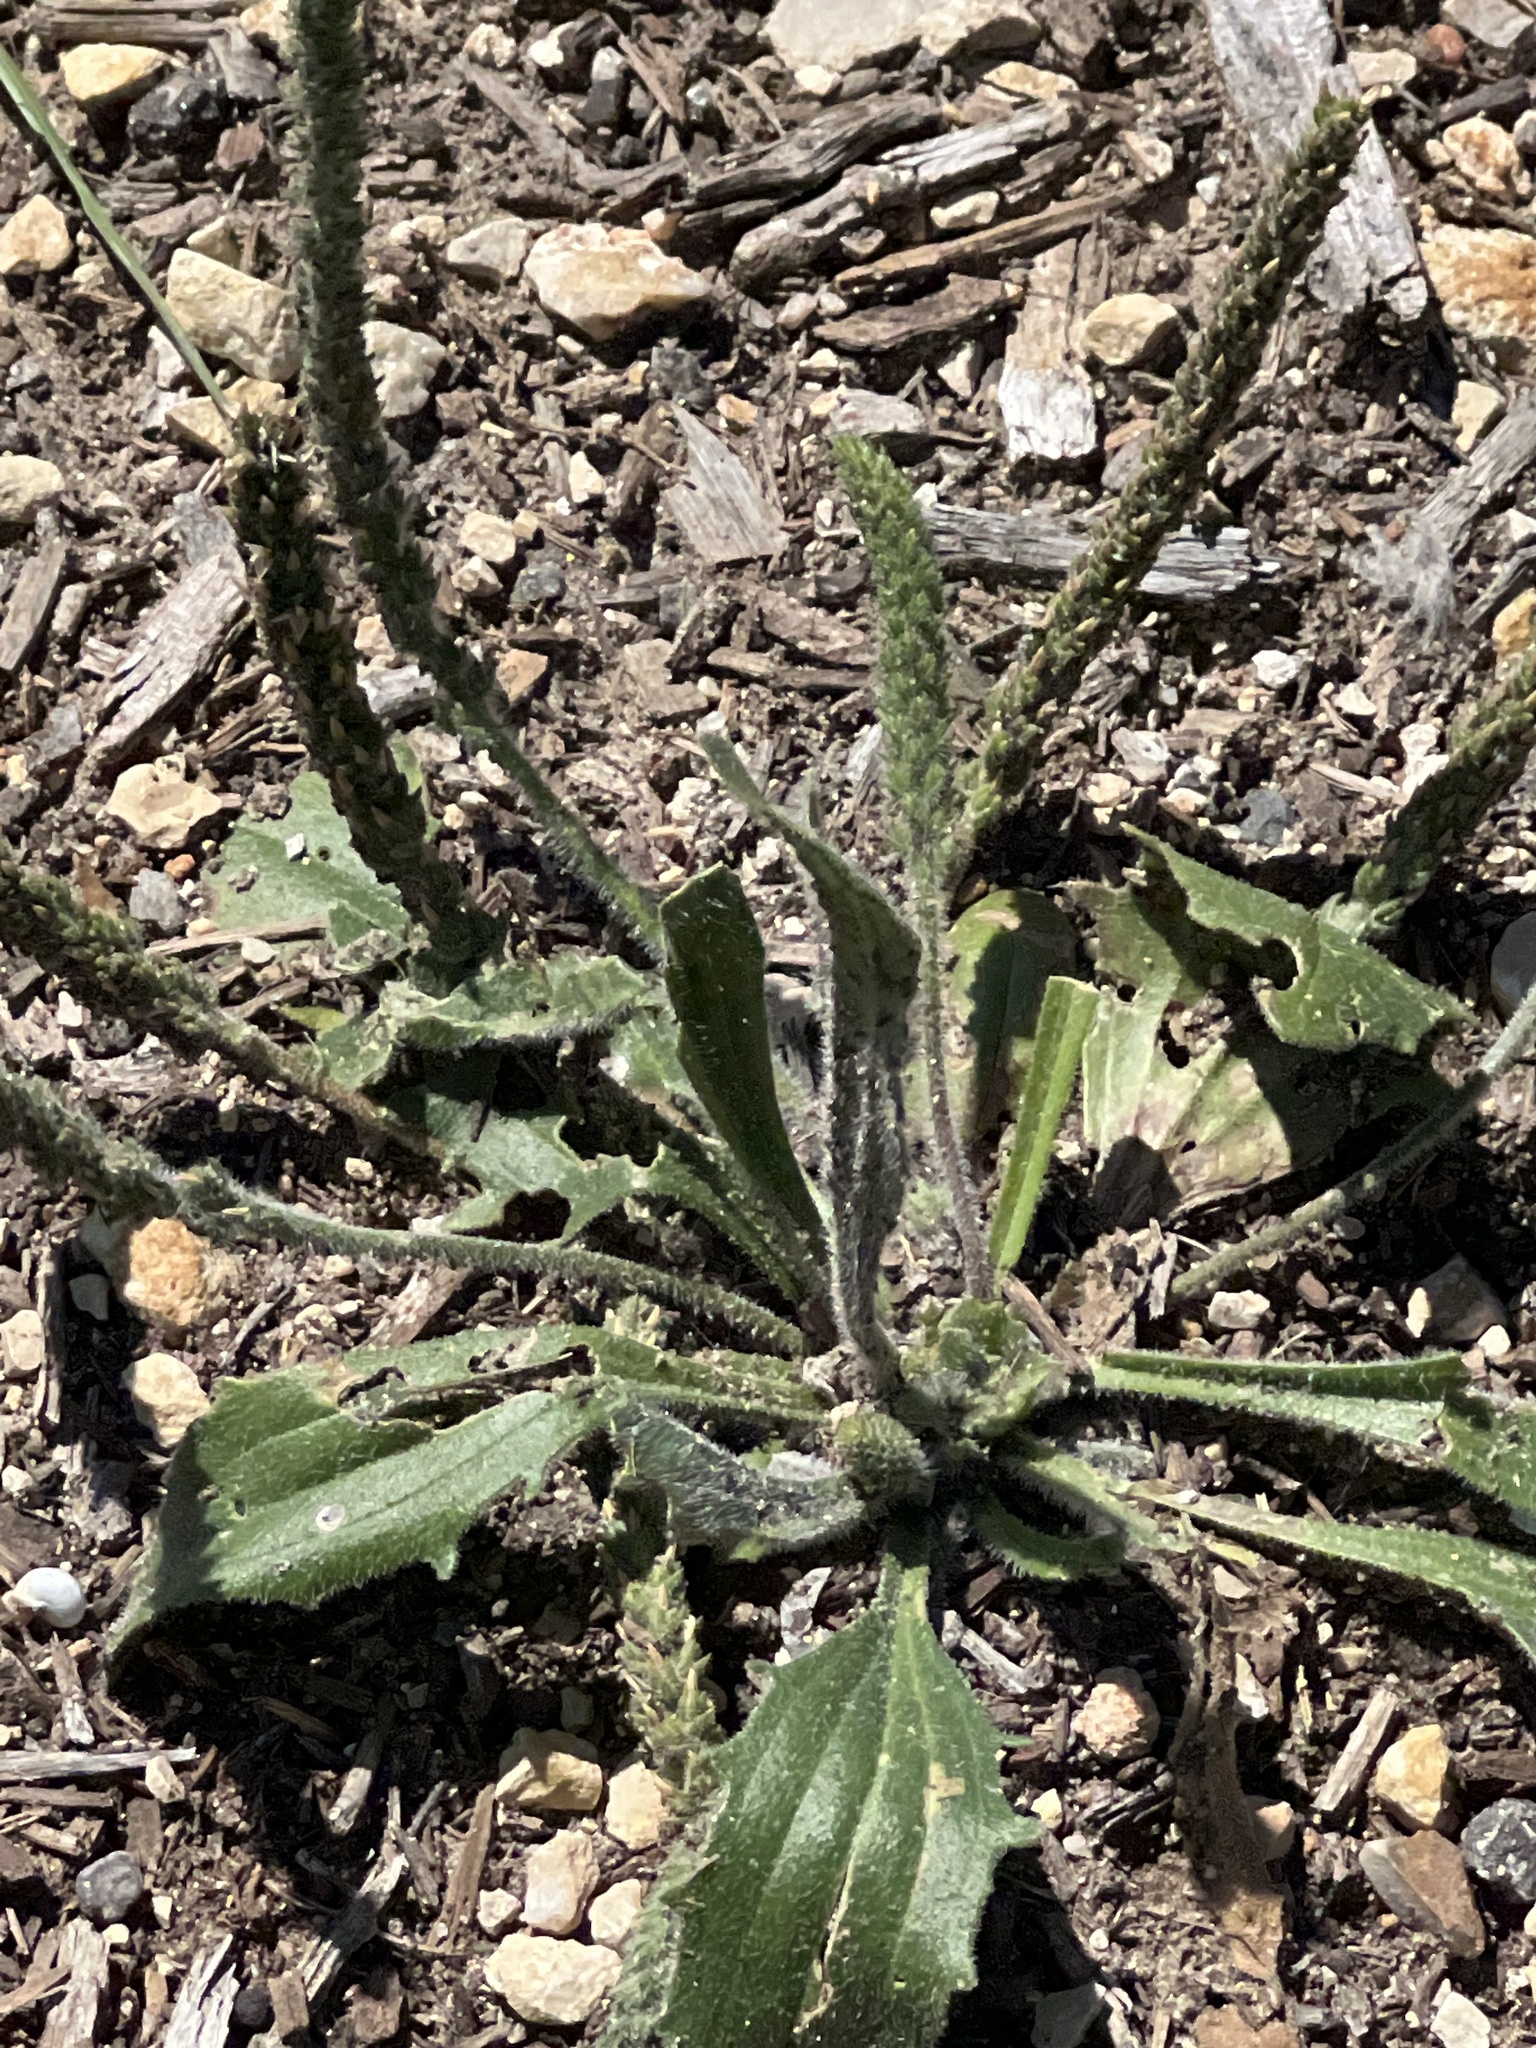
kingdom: Plantae
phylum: Tracheophyta
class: Magnoliopsida
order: Lamiales
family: Plantaginaceae
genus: Plantago
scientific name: Plantago rhodosperma
